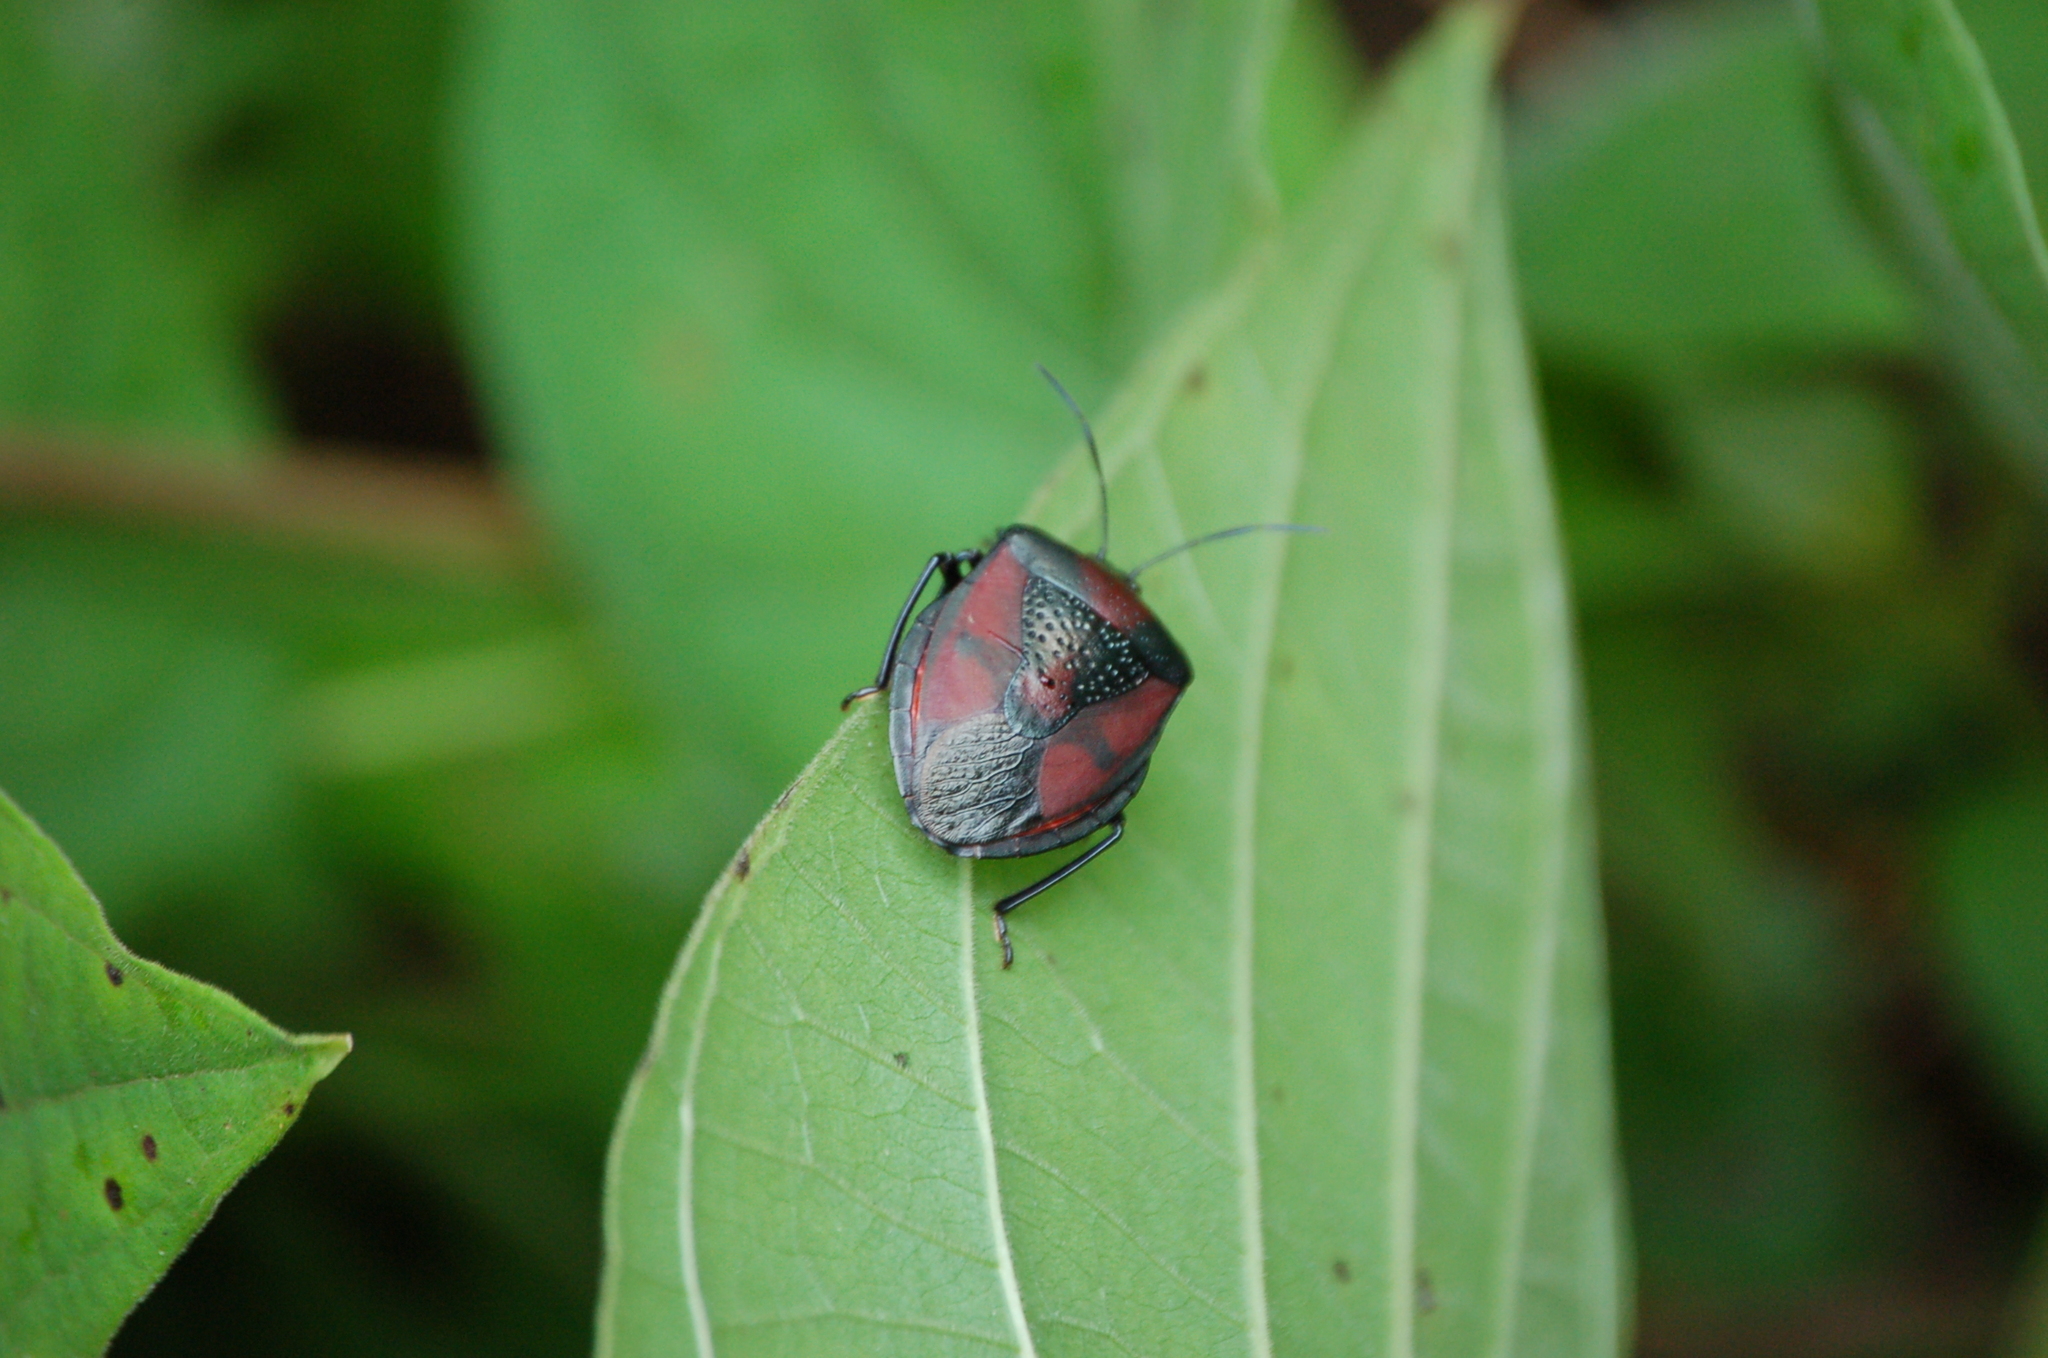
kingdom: Animalia
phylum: Arthropoda
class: Insecta
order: Hemiptera
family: Pentatomidae
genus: Brachystethus
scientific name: Brachystethus rubromaculatus
